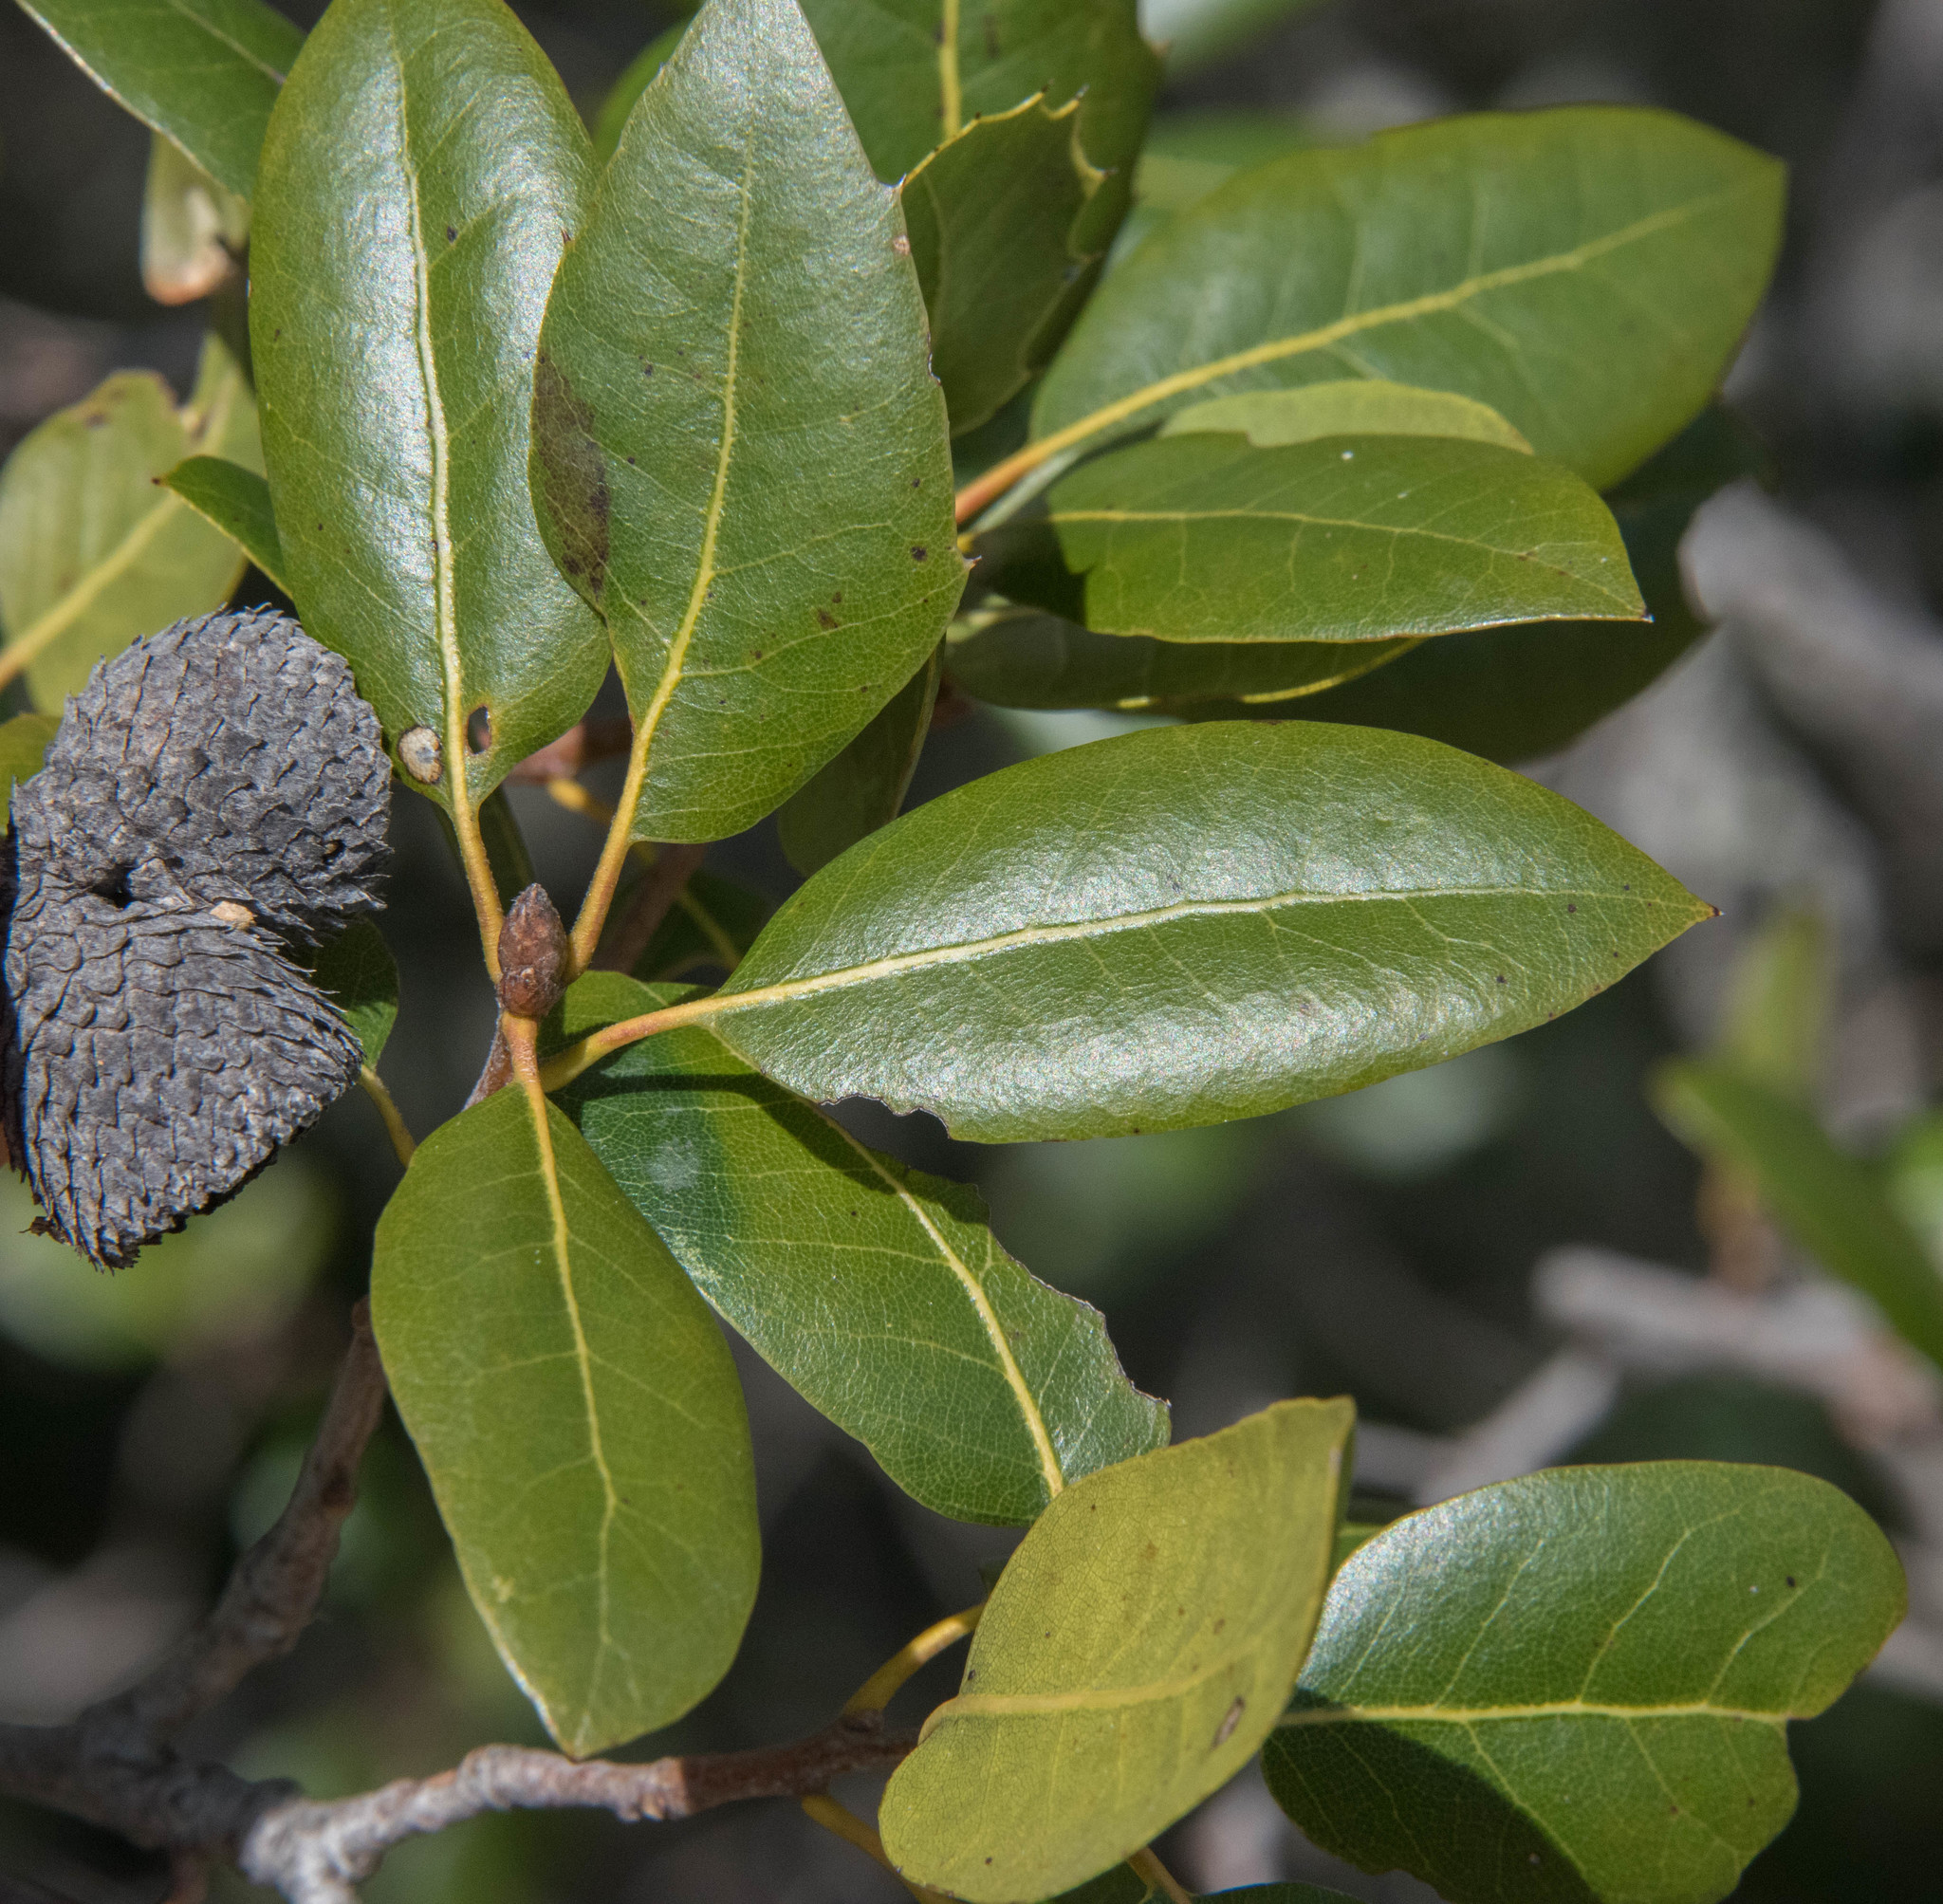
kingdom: Plantae
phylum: Tracheophyta
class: Magnoliopsida
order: Fagales
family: Fagaceae
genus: Quercus
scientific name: Quercus wislizeni
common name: Interior live oak
